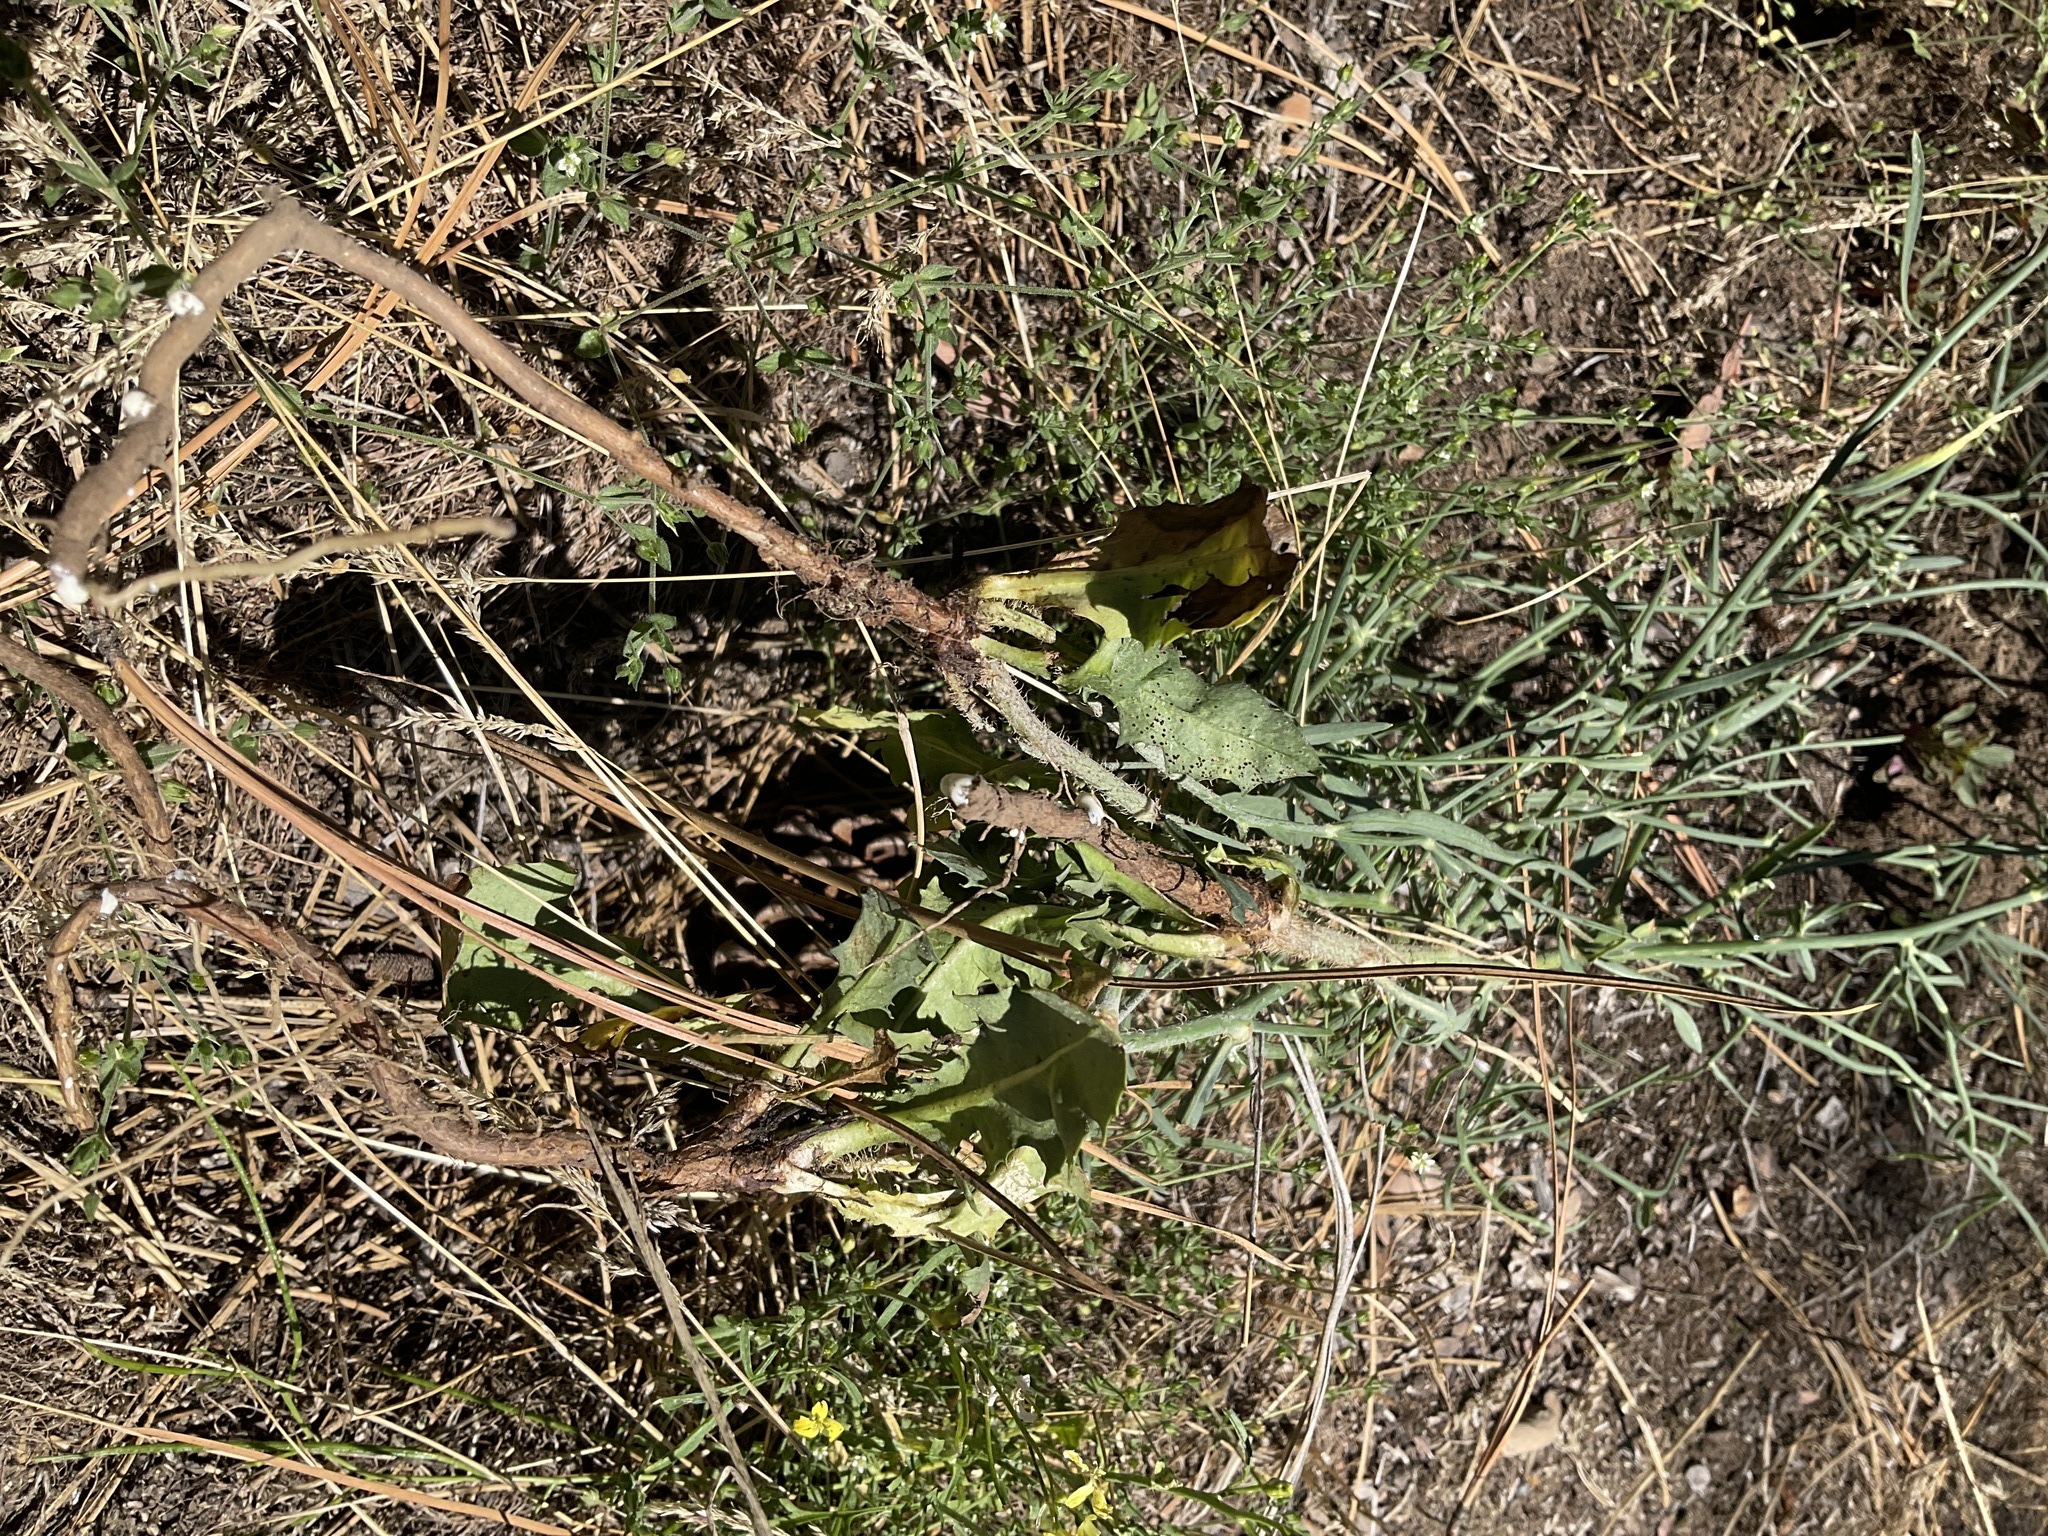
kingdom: Plantae
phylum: Tracheophyta
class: Magnoliopsida
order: Asterales
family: Asteraceae
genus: Chondrilla
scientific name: Chondrilla juncea
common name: Skeleton weed
